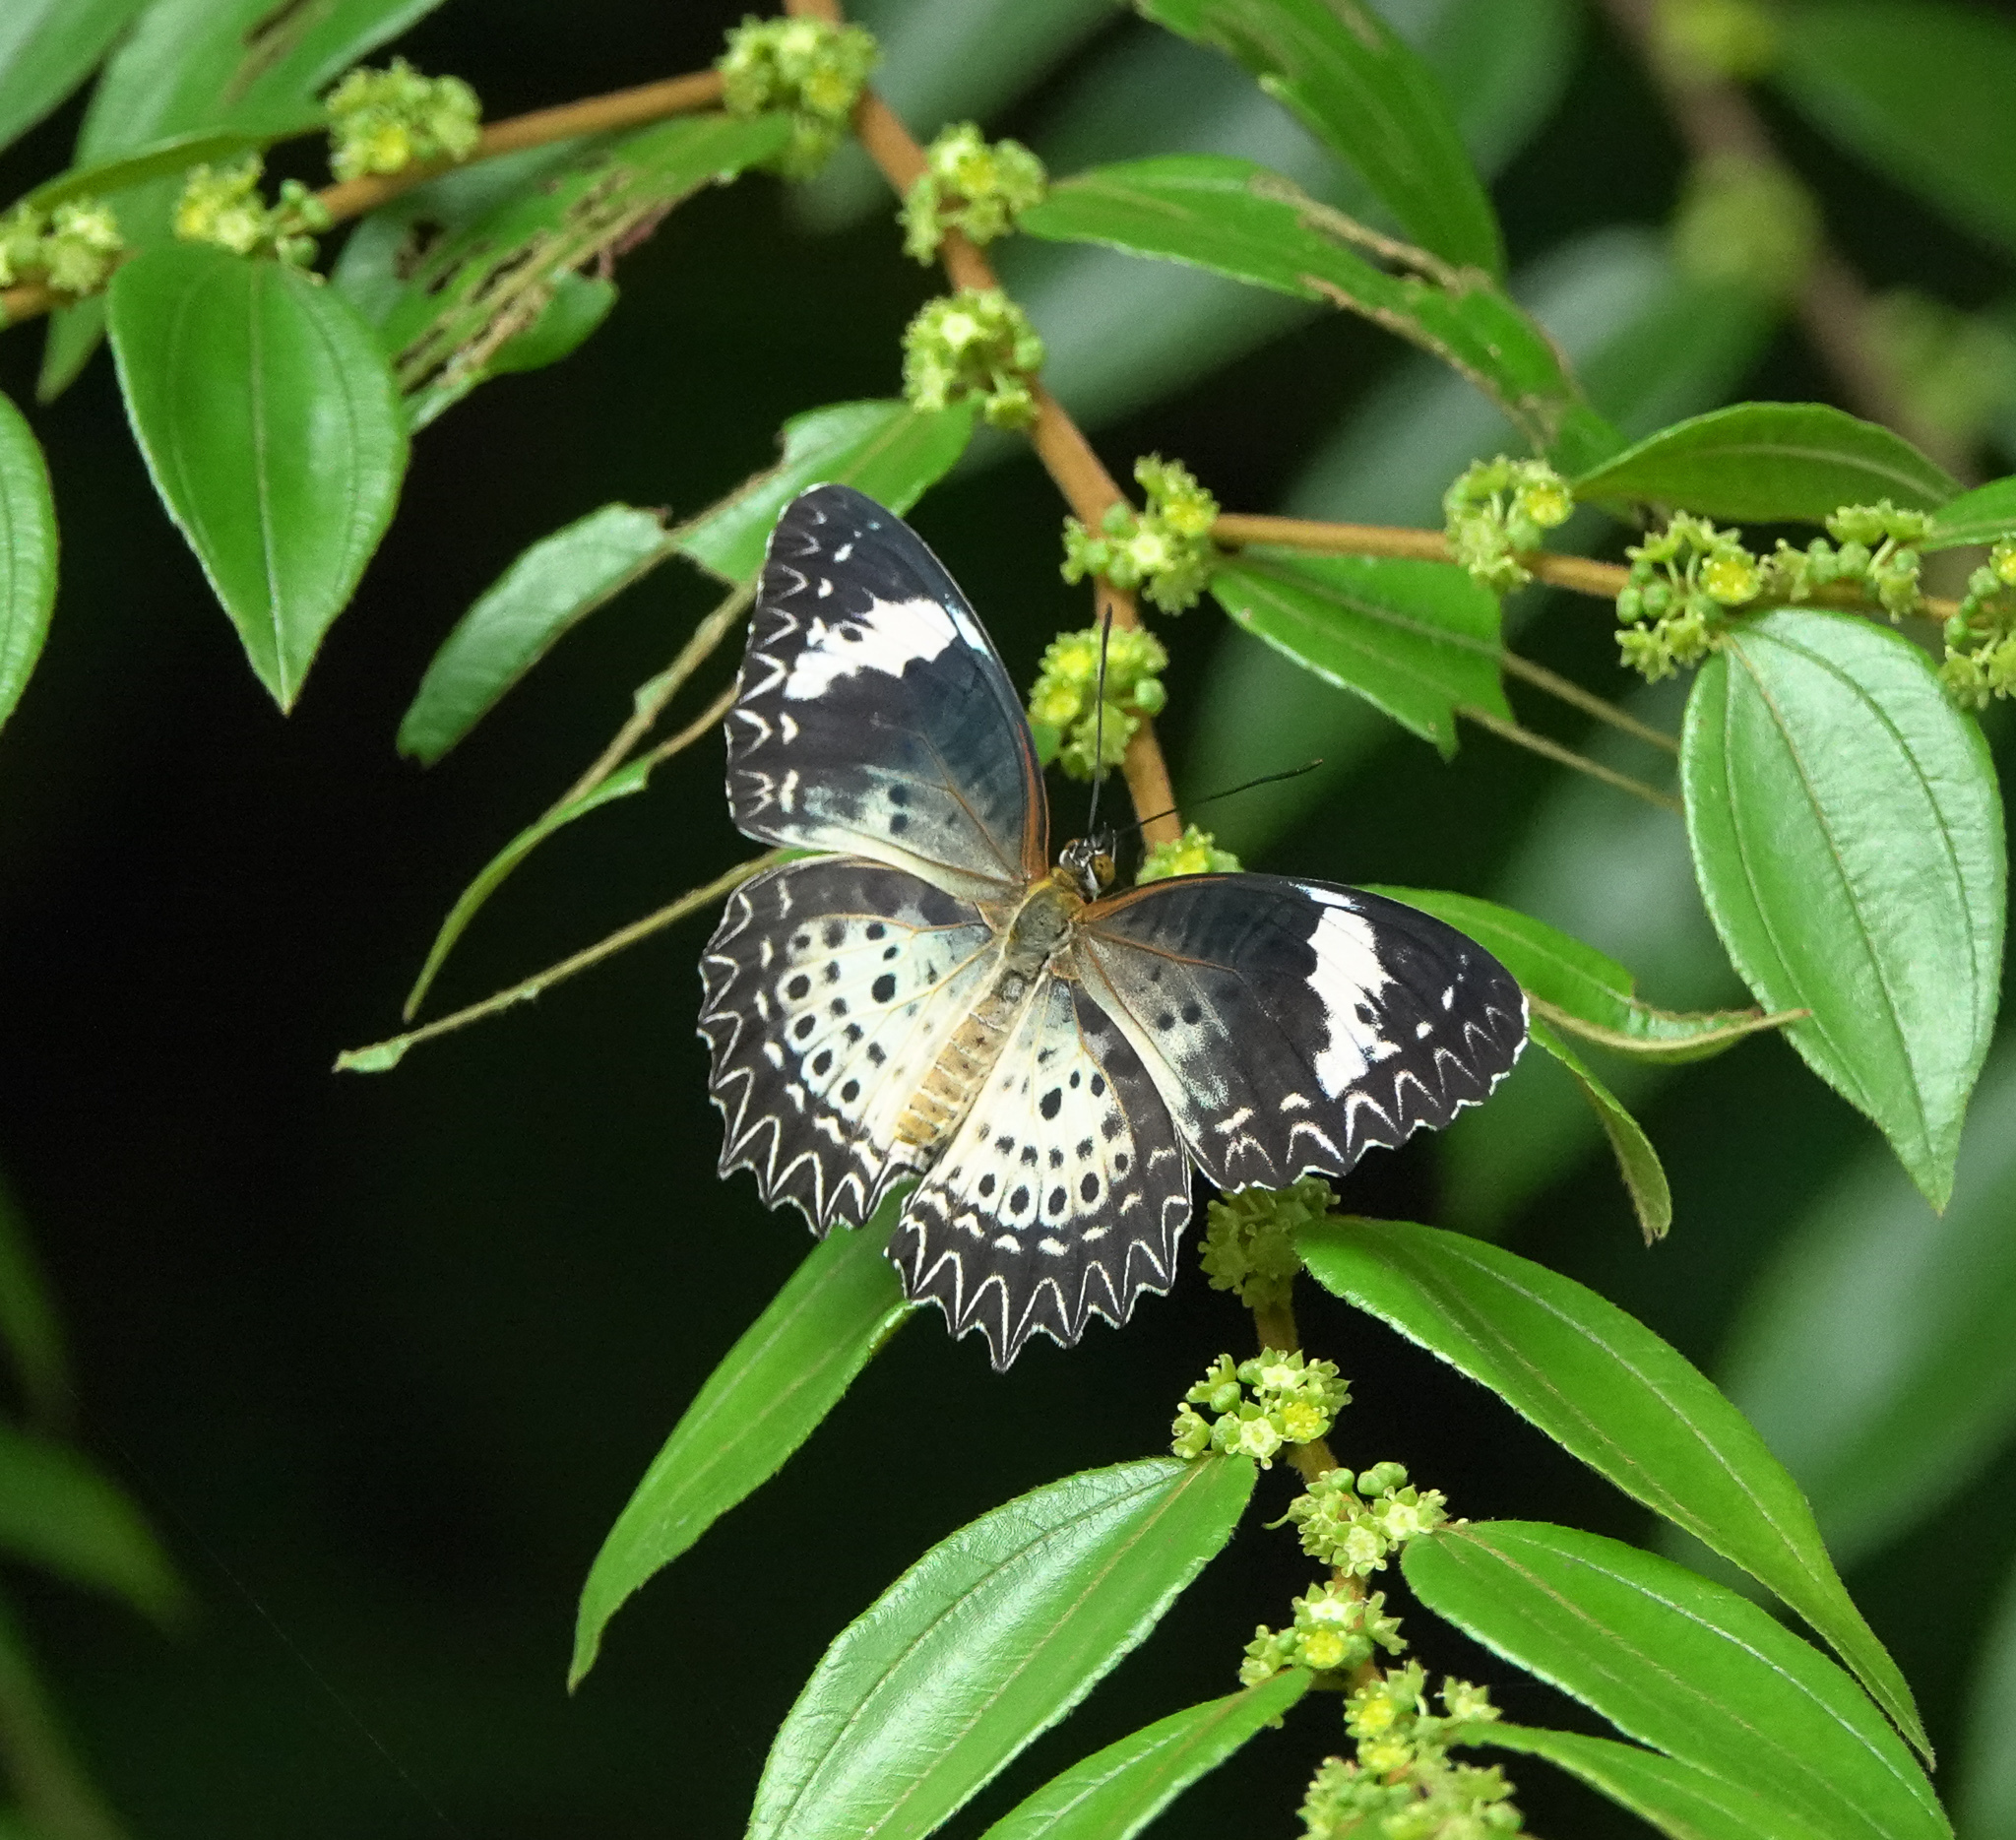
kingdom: Animalia
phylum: Arthropoda
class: Insecta
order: Lepidoptera
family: Nymphalidae
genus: Cethosia
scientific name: Cethosia cyane
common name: Leopard lacewing butterfly
